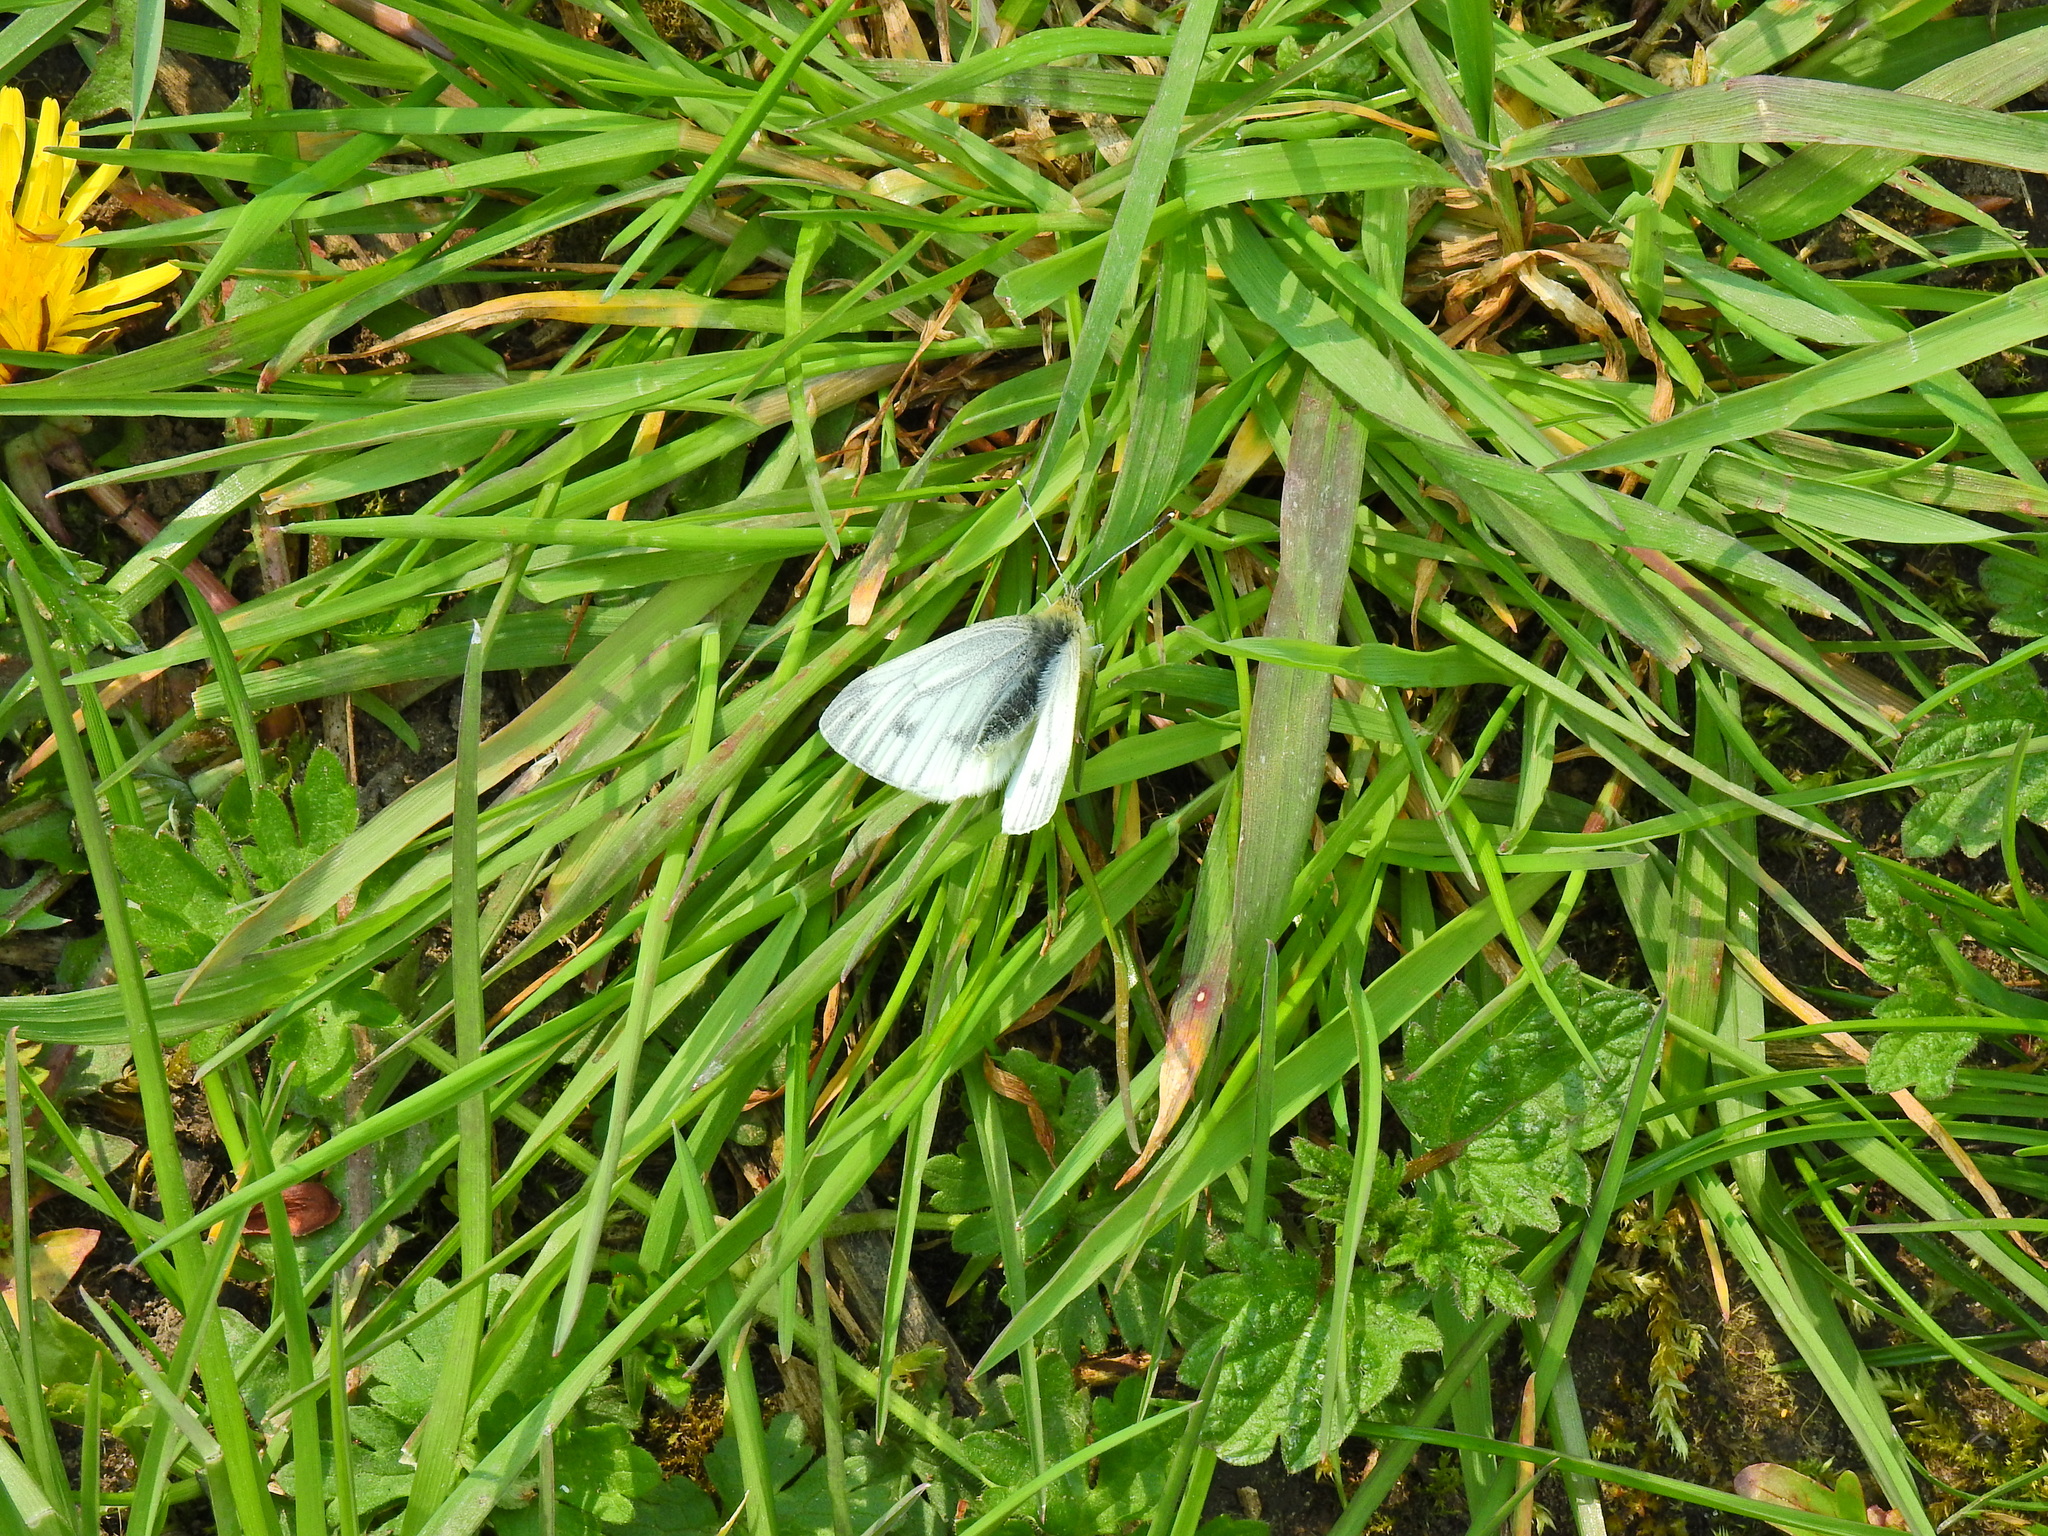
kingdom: Animalia
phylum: Arthropoda
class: Insecta
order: Lepidoptera
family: Pieridae
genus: Pieris
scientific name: Pieris napi
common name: Green-veined white
